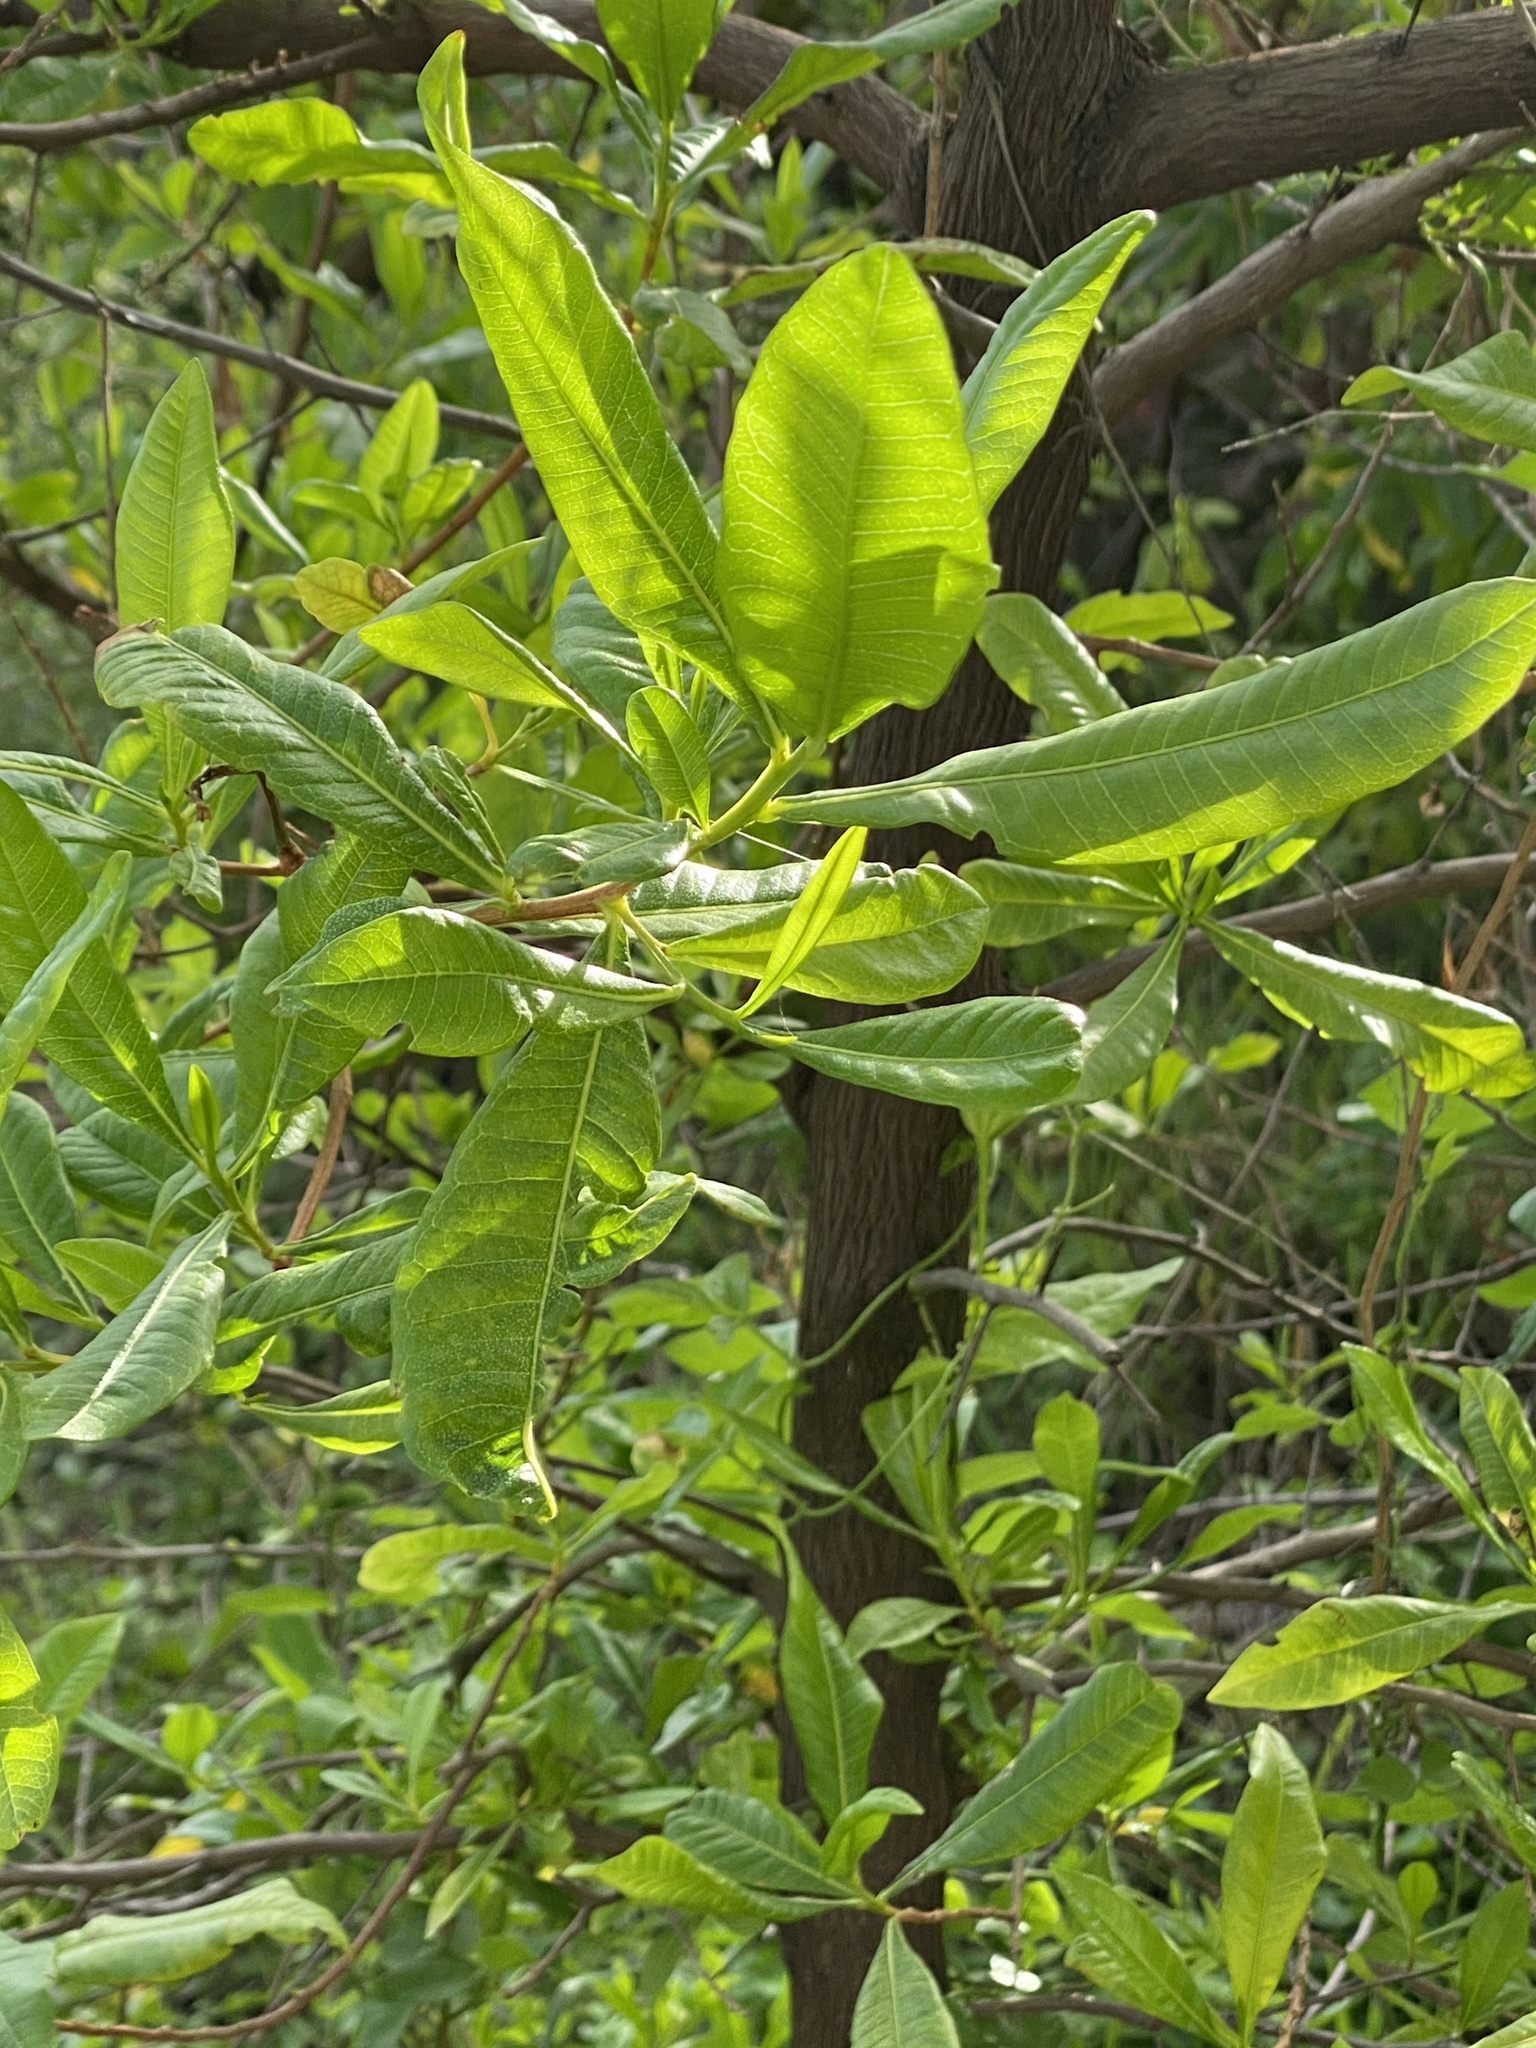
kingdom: Plantae
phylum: Tracheophyta
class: Magnoliopsida
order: Sapindales
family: Sapindaceae
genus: Dodonaea
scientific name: Dodonaea viscosa
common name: Hopbush
